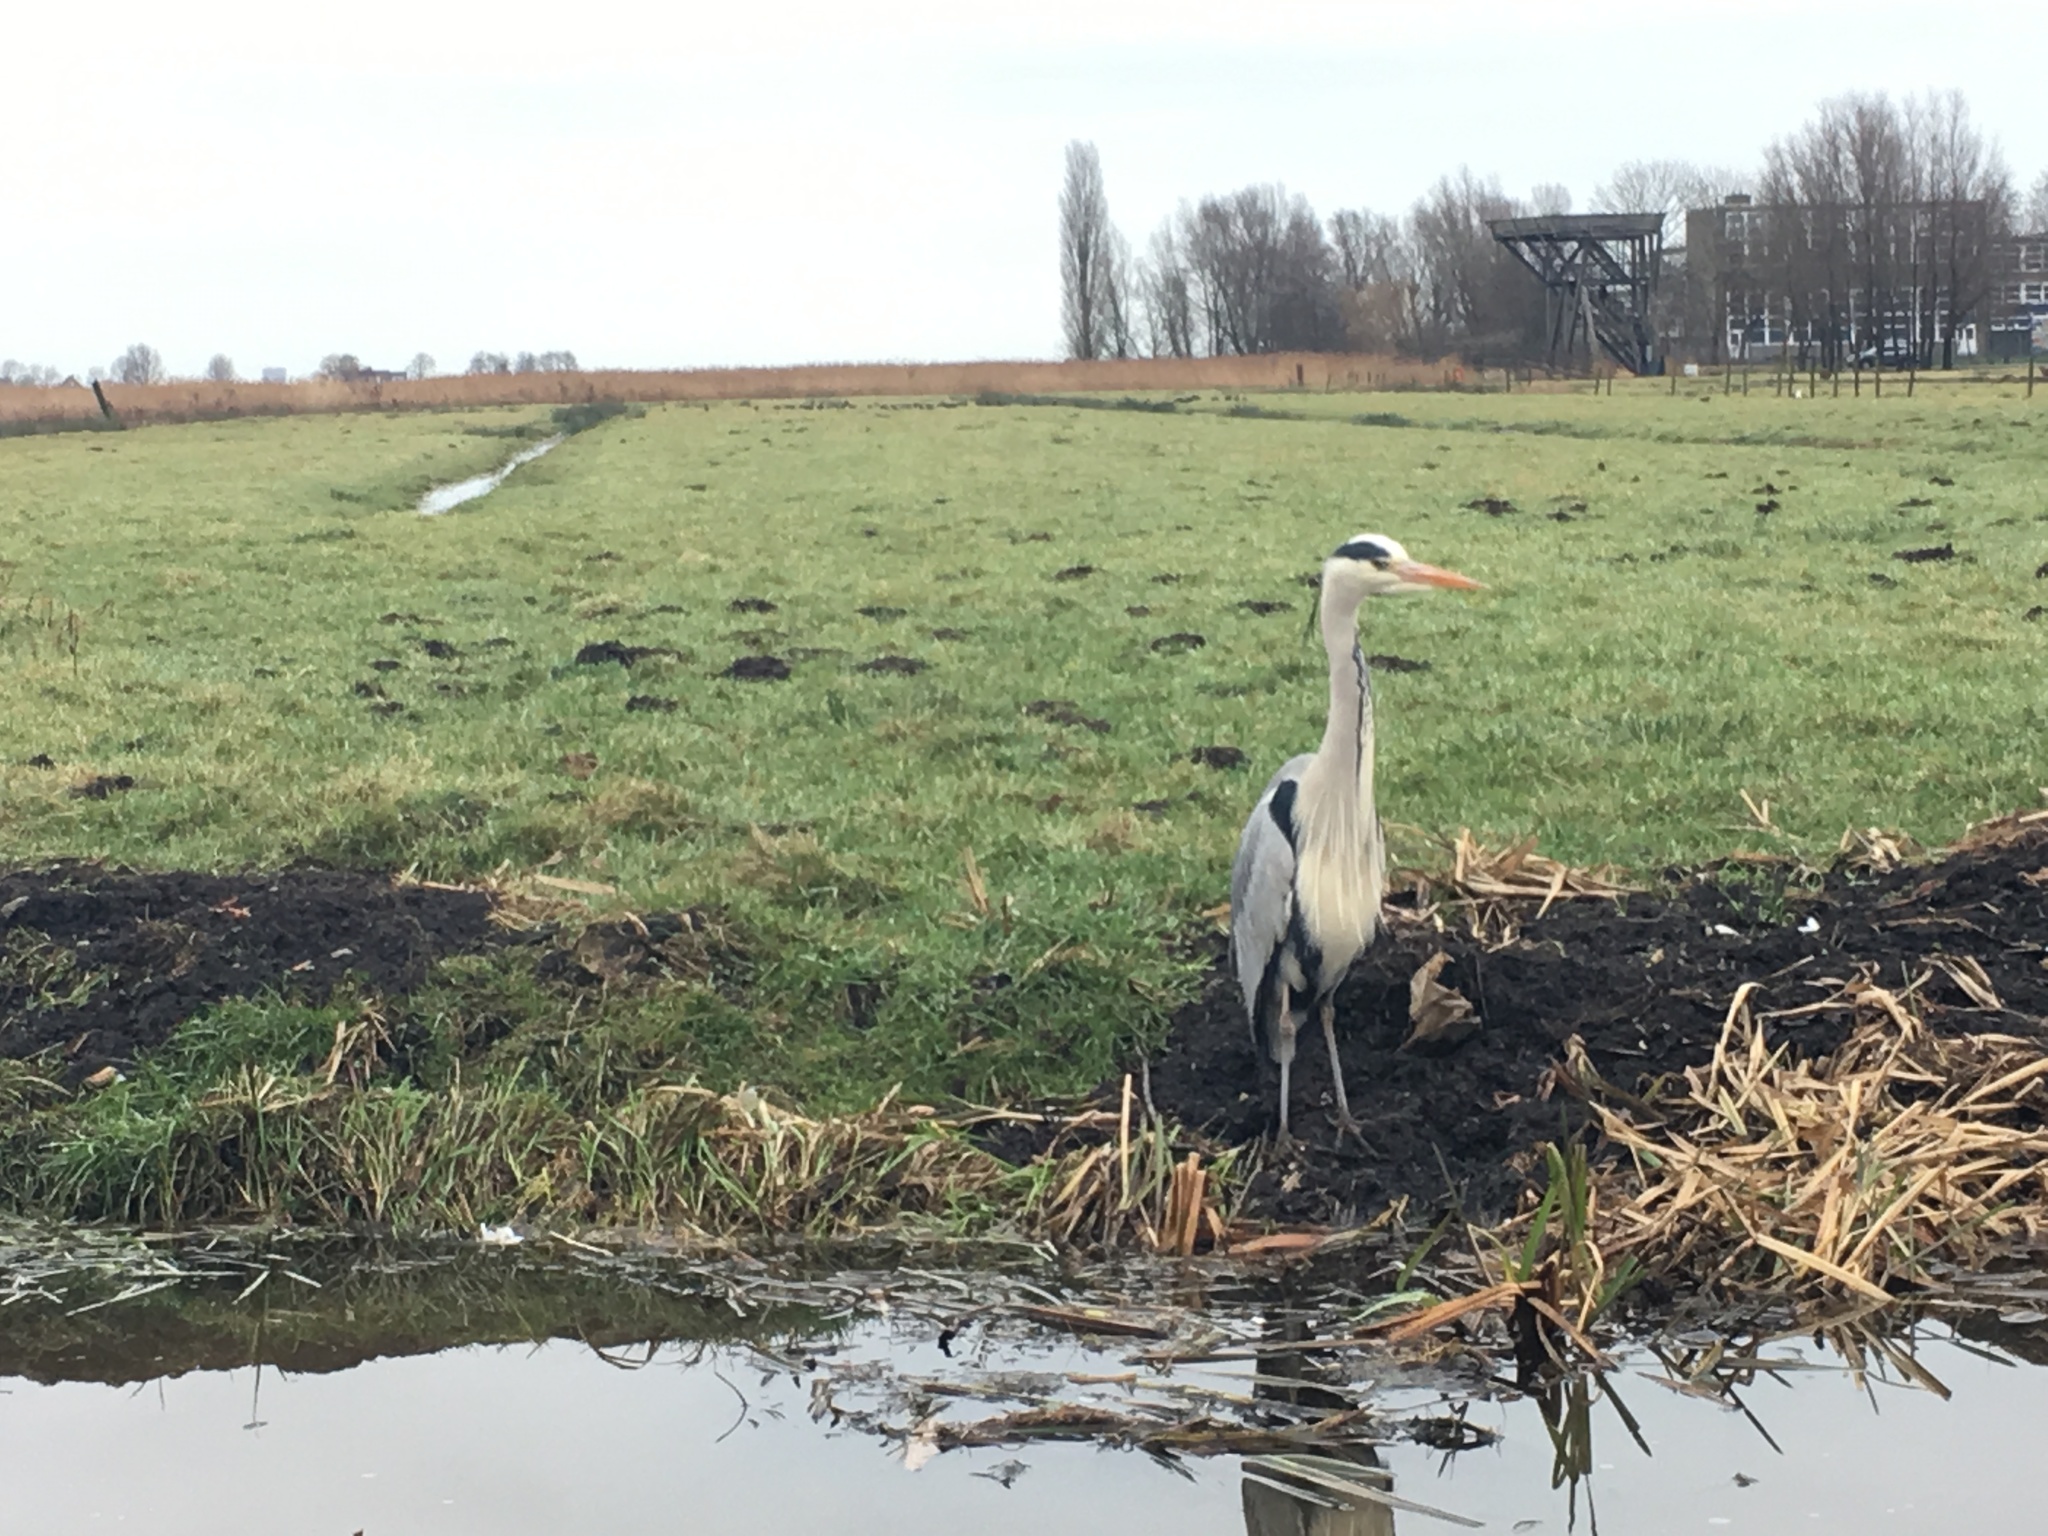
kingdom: Animalia
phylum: Chordata
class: Aves
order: Pelecaniformes
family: Ardeidae
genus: Ardea
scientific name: Ardea cinerea
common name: Grey heron
